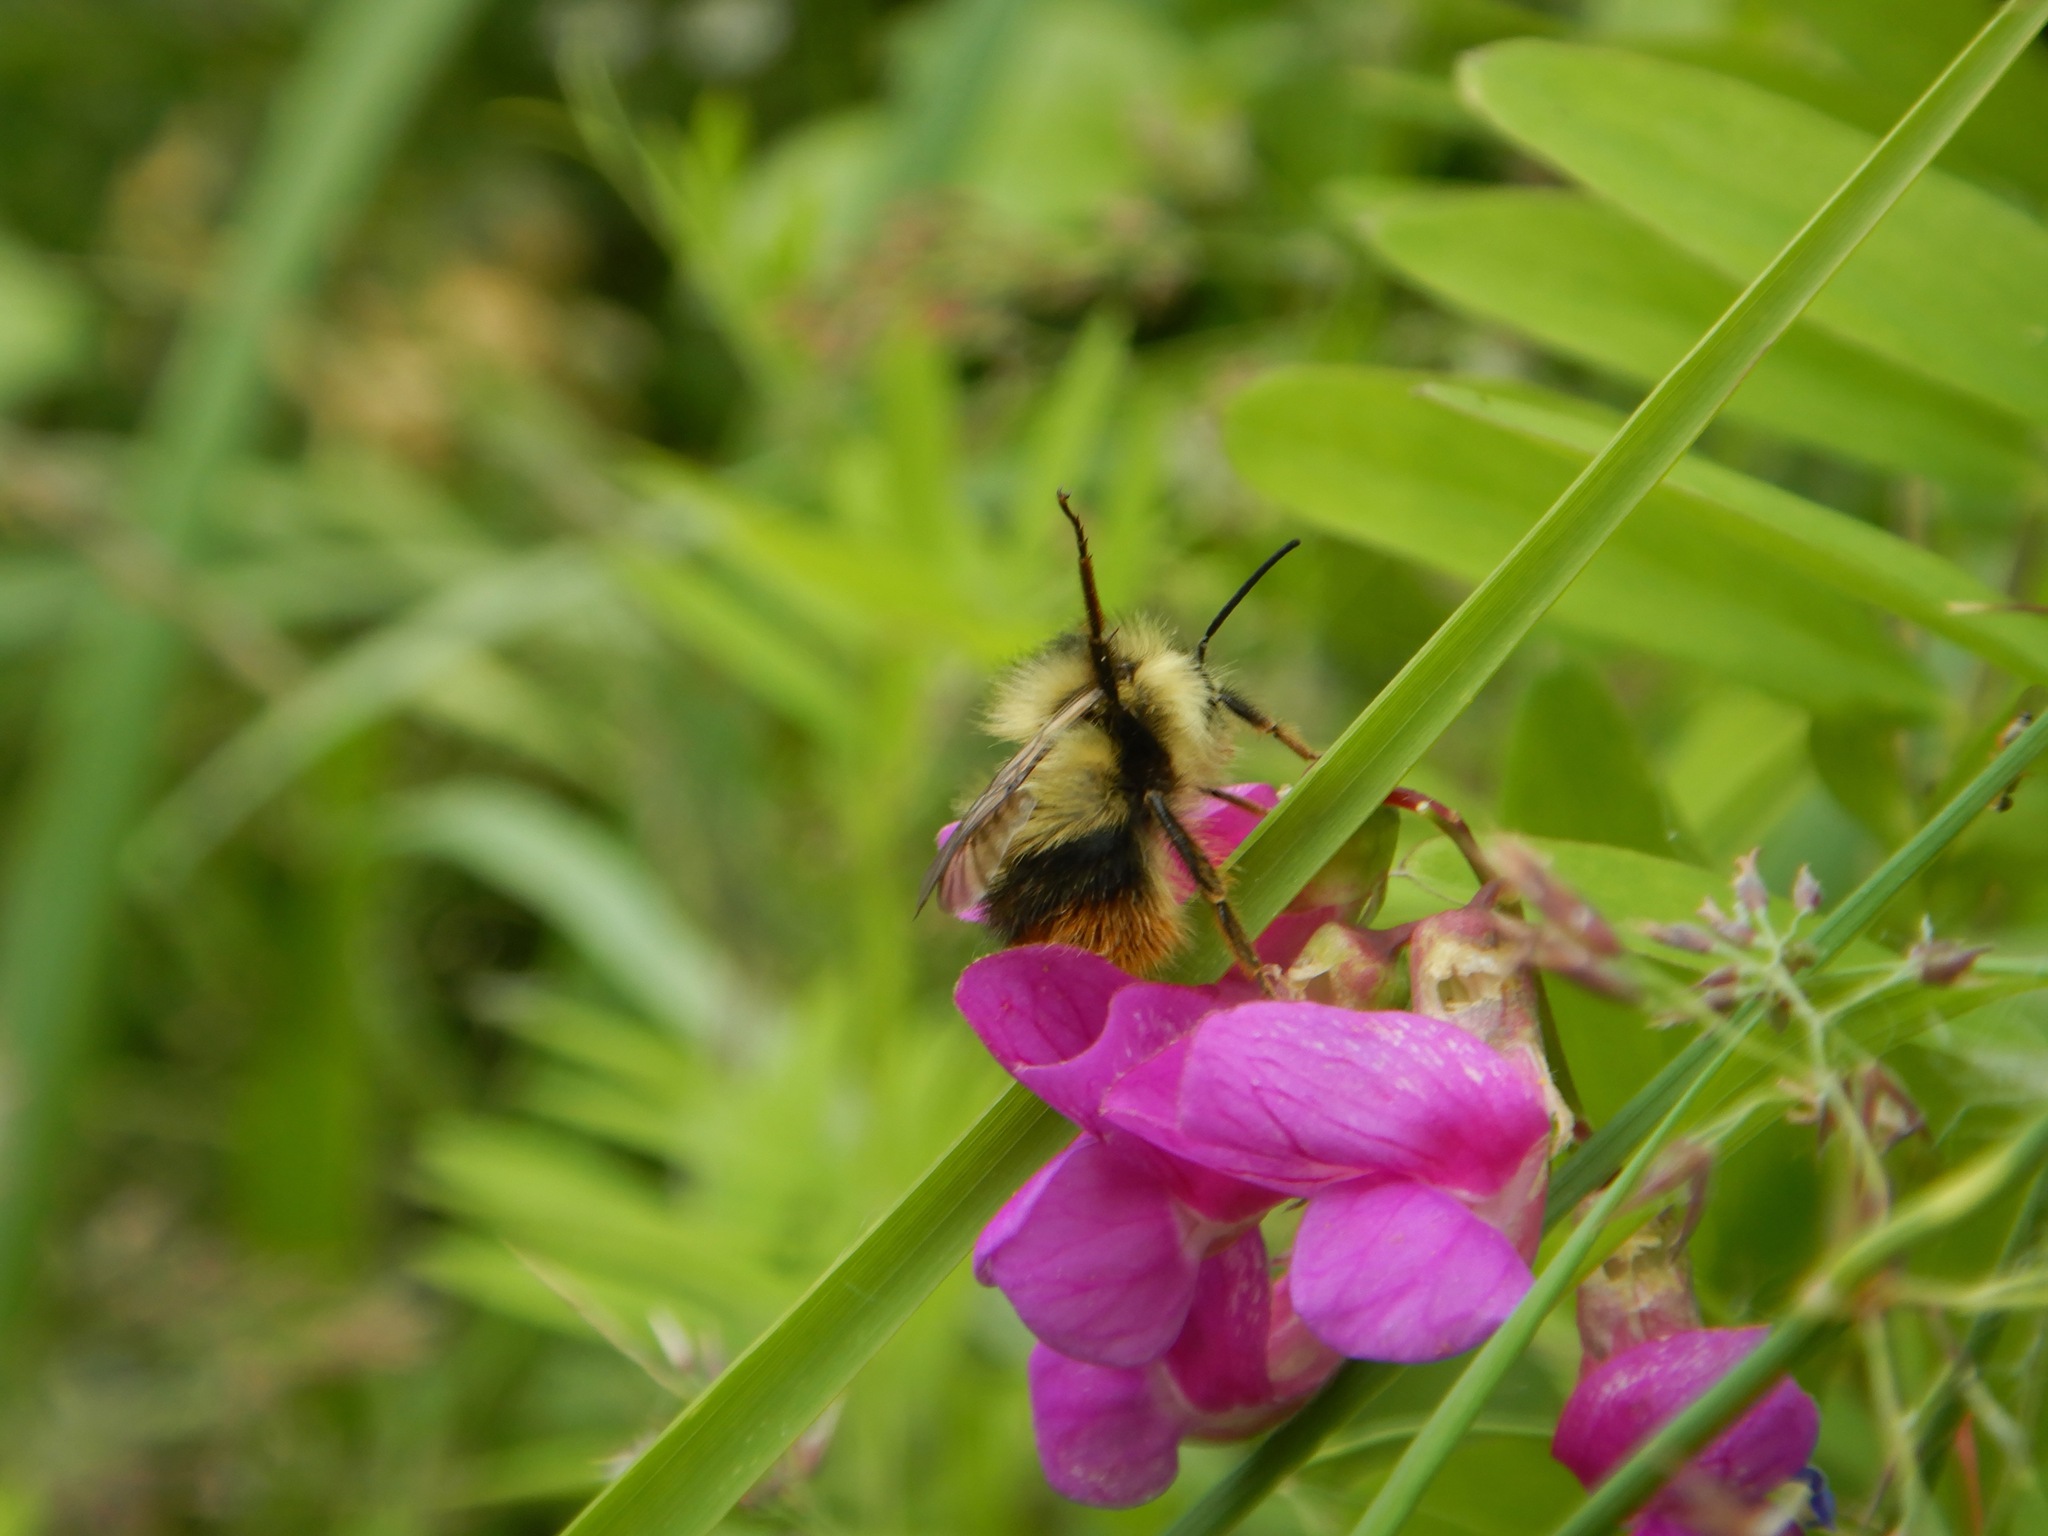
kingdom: Animalia
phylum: Arthropoda
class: Insecta
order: Hymenoptera
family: Apidae
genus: Bombus
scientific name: Bombus mixtus
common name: Fuzzy-horned bumble bee
